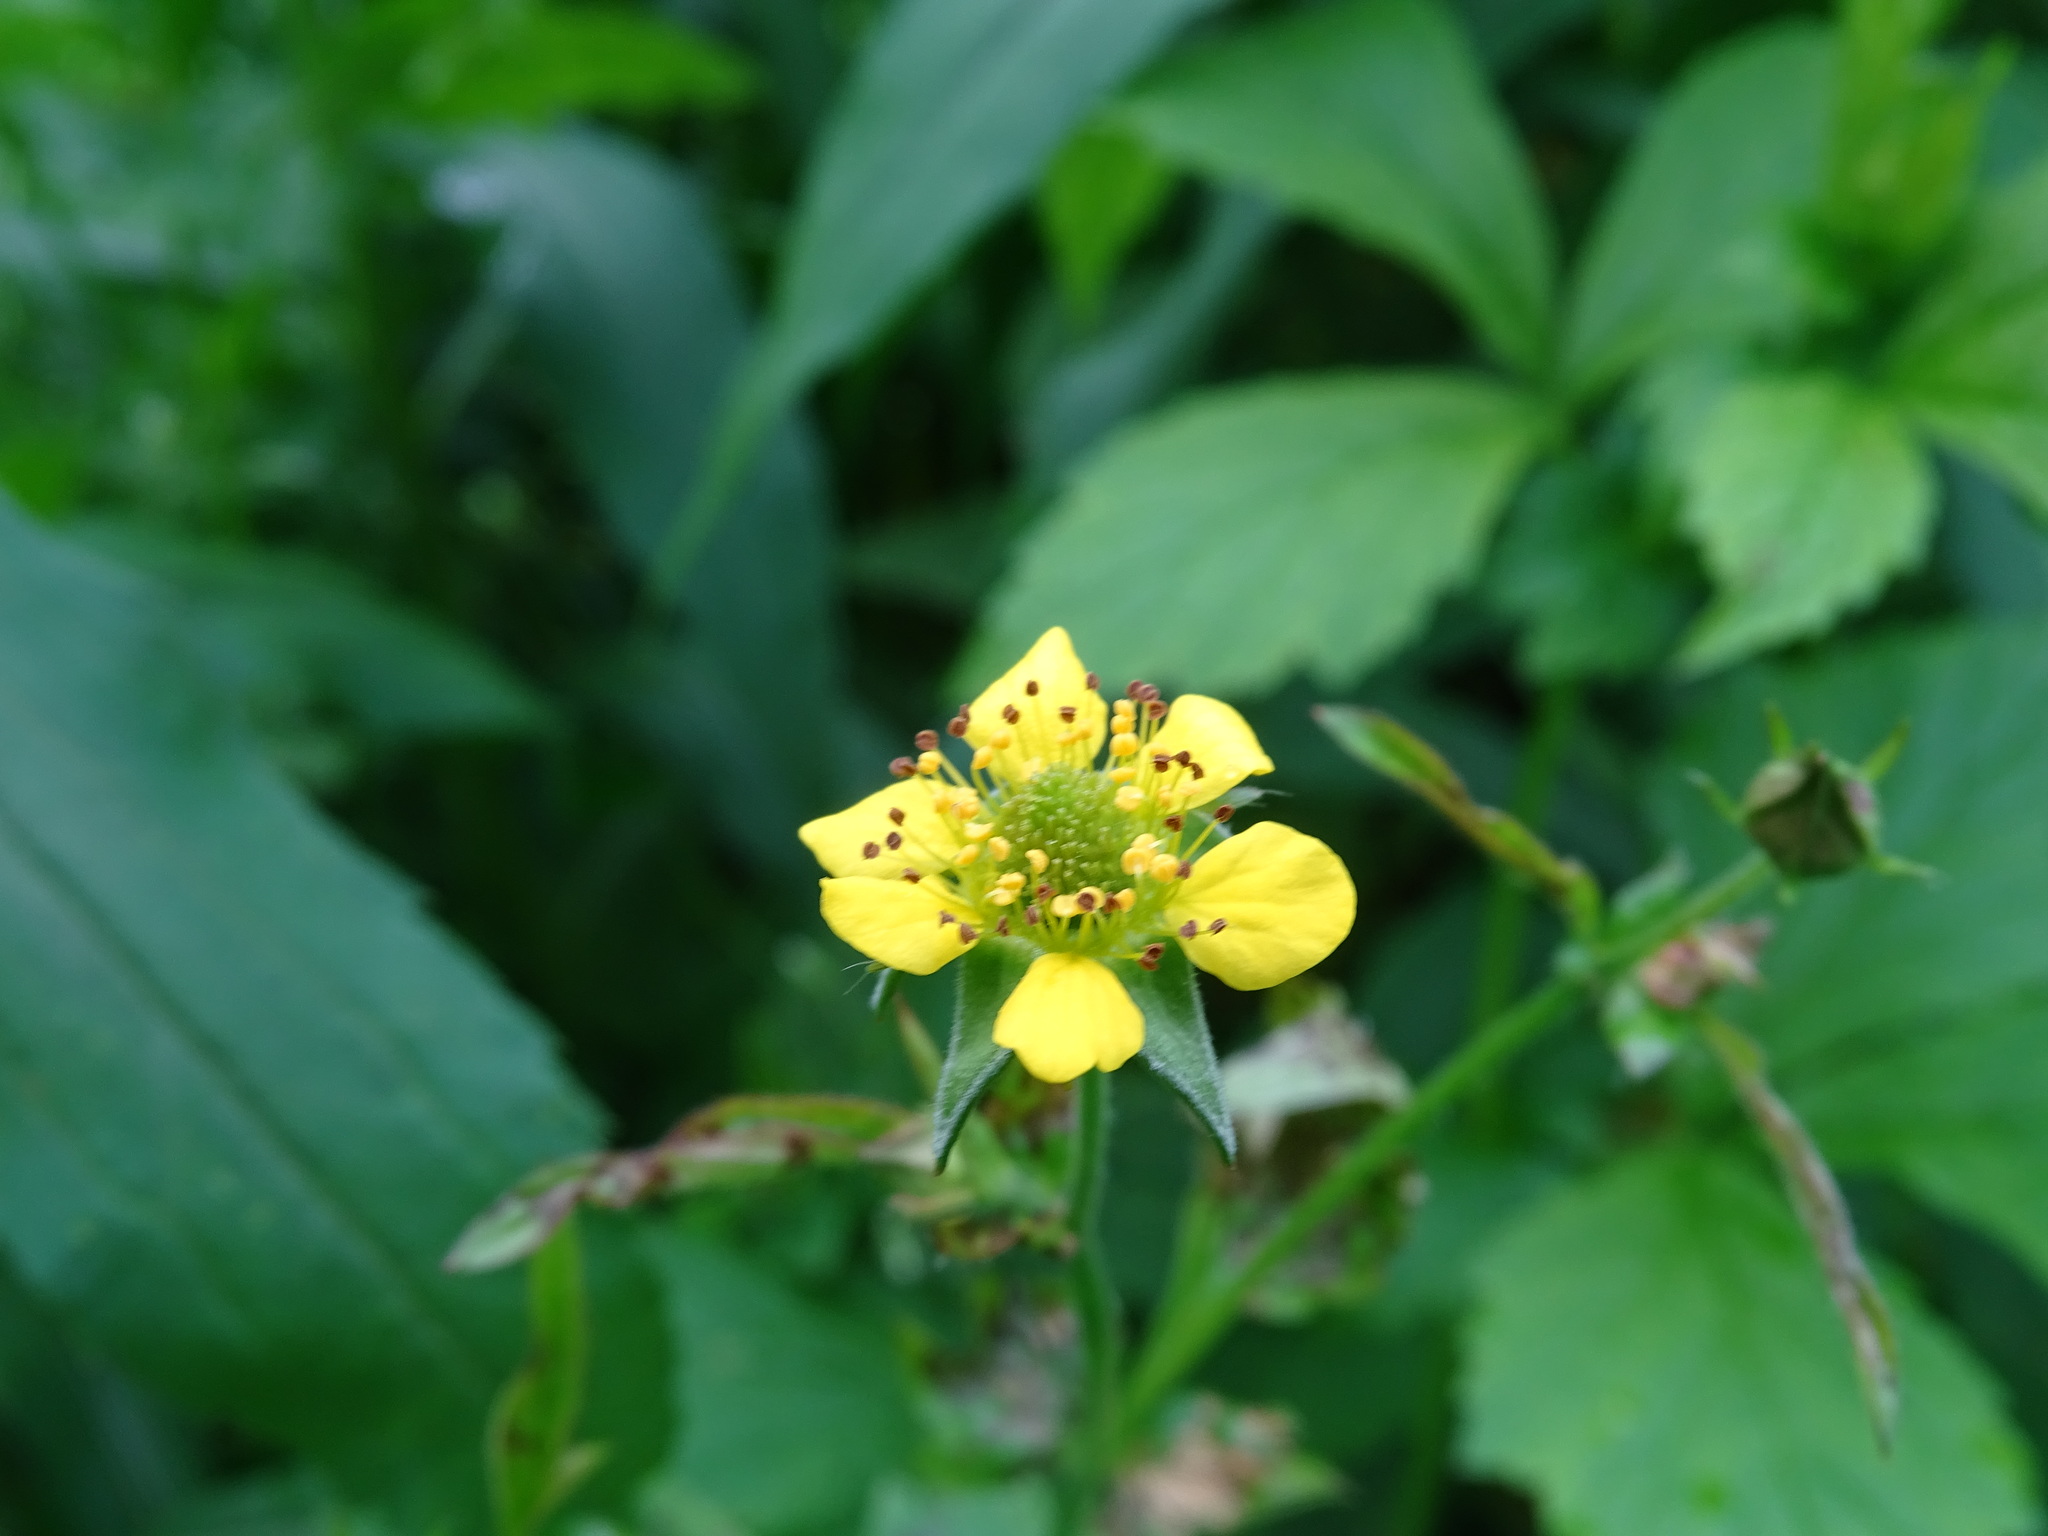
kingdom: Plantae
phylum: Tracheophyta
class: Magnoliopsida
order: Rosales
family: Rosaceae
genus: Geum
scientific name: Geum urbanum
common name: Wood avens
